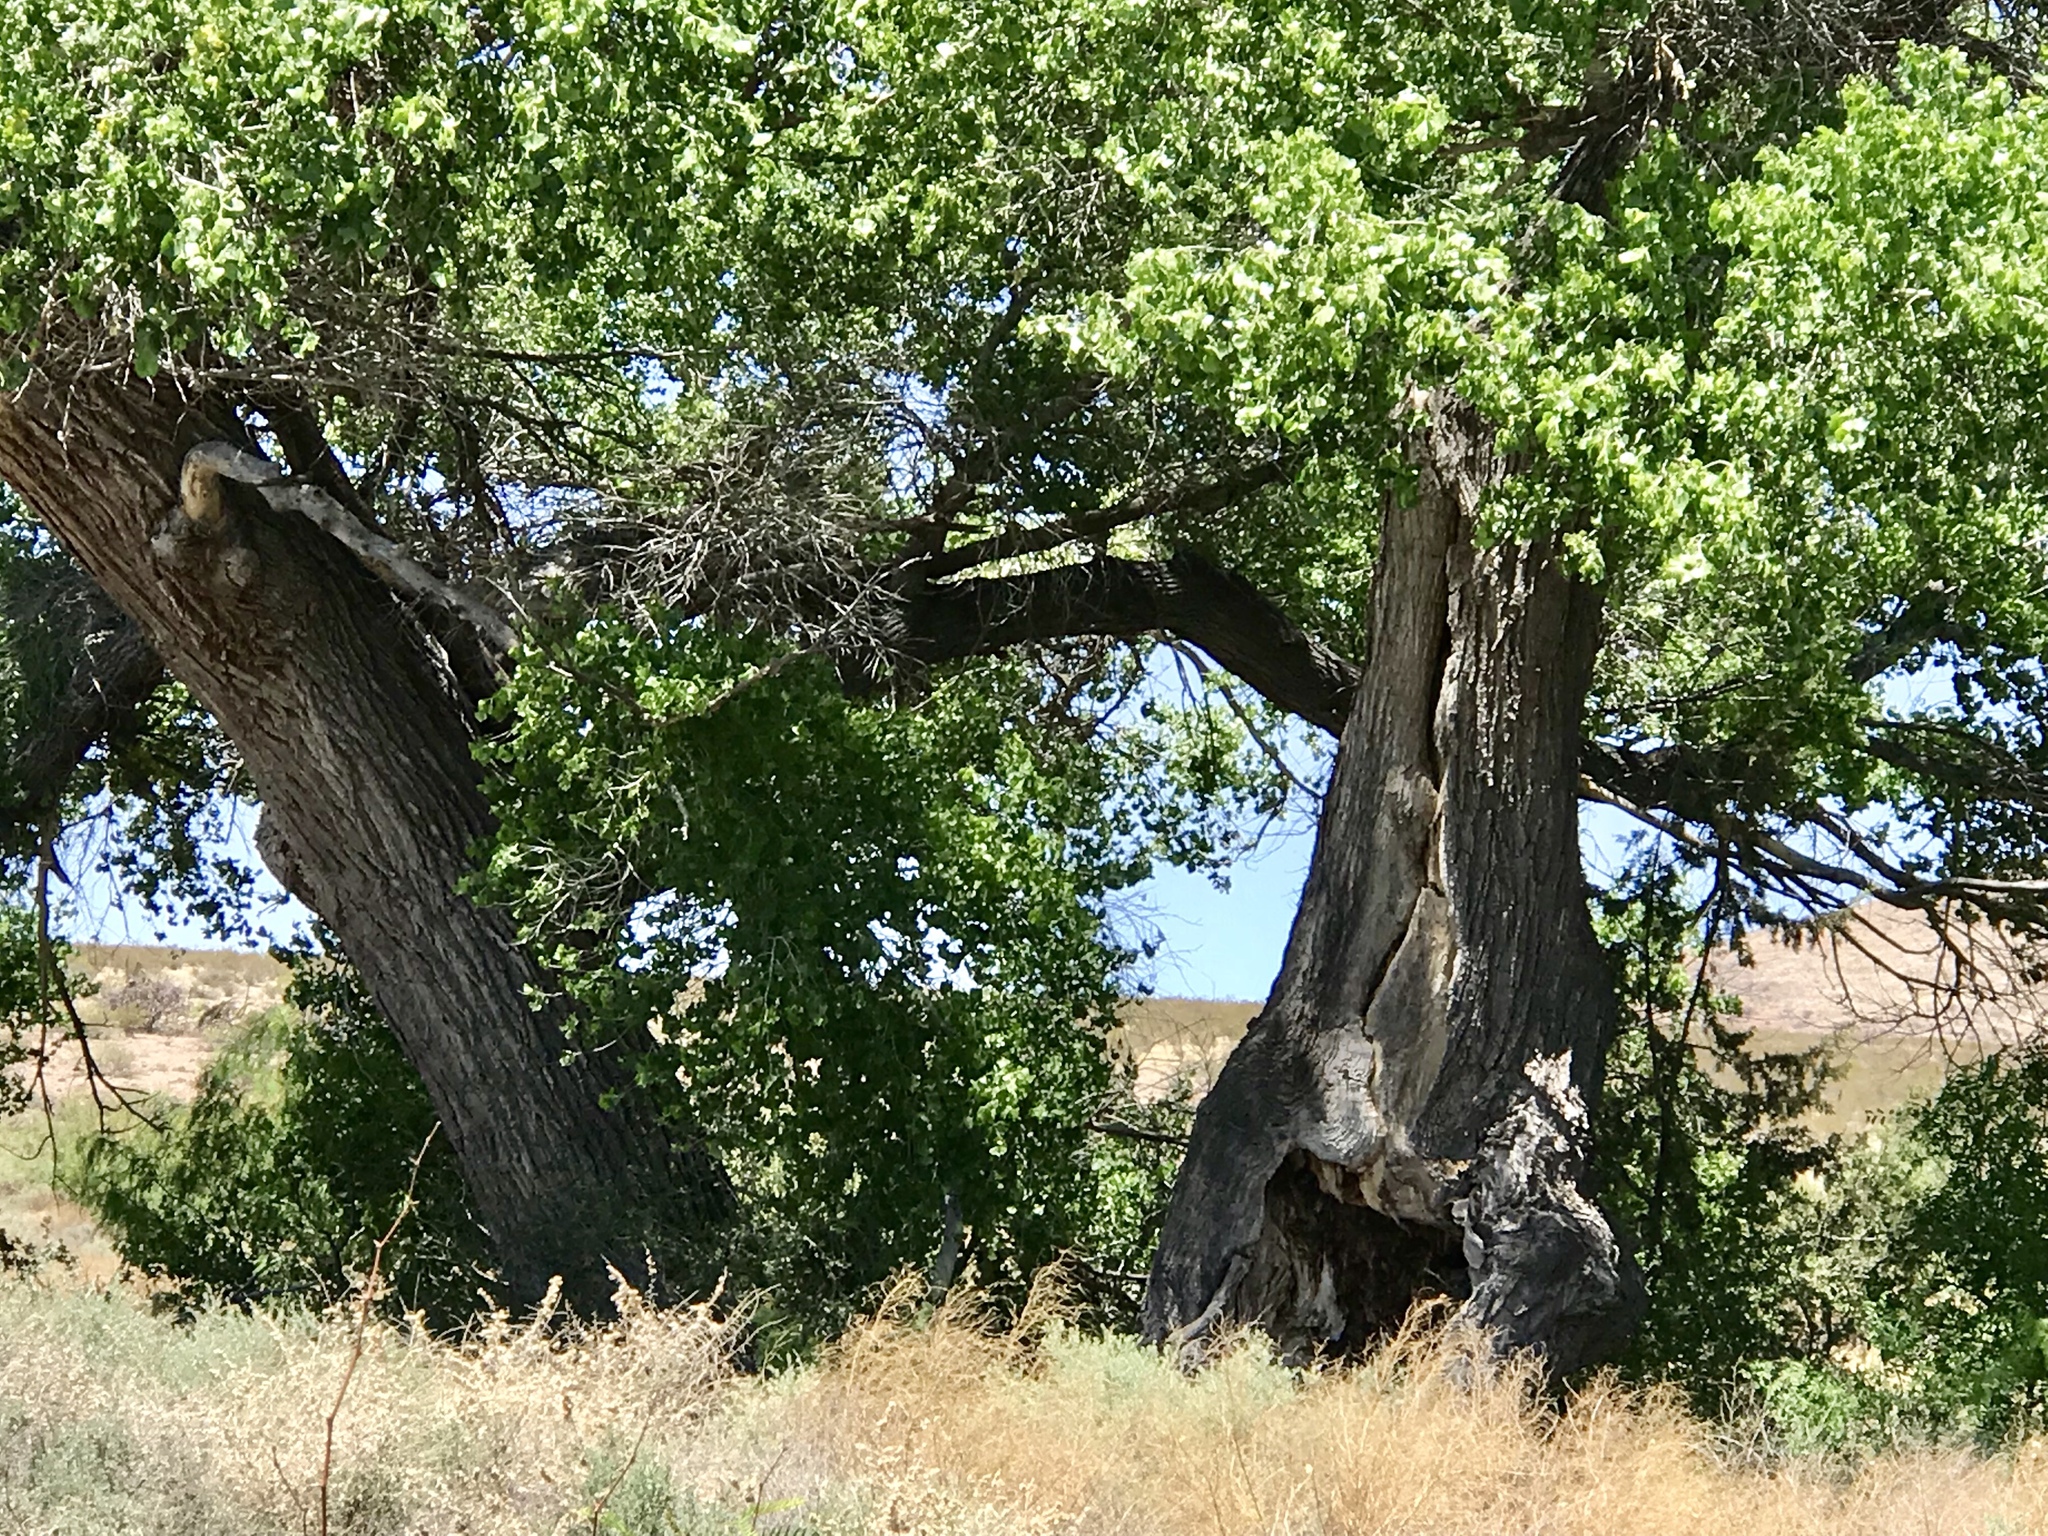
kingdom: Plantae
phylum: Tracheophyta
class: Magnoliopsida
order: Malpighiales
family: Salicaceae
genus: Populus
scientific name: Populus fremontii
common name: Fremont's cottonwood
